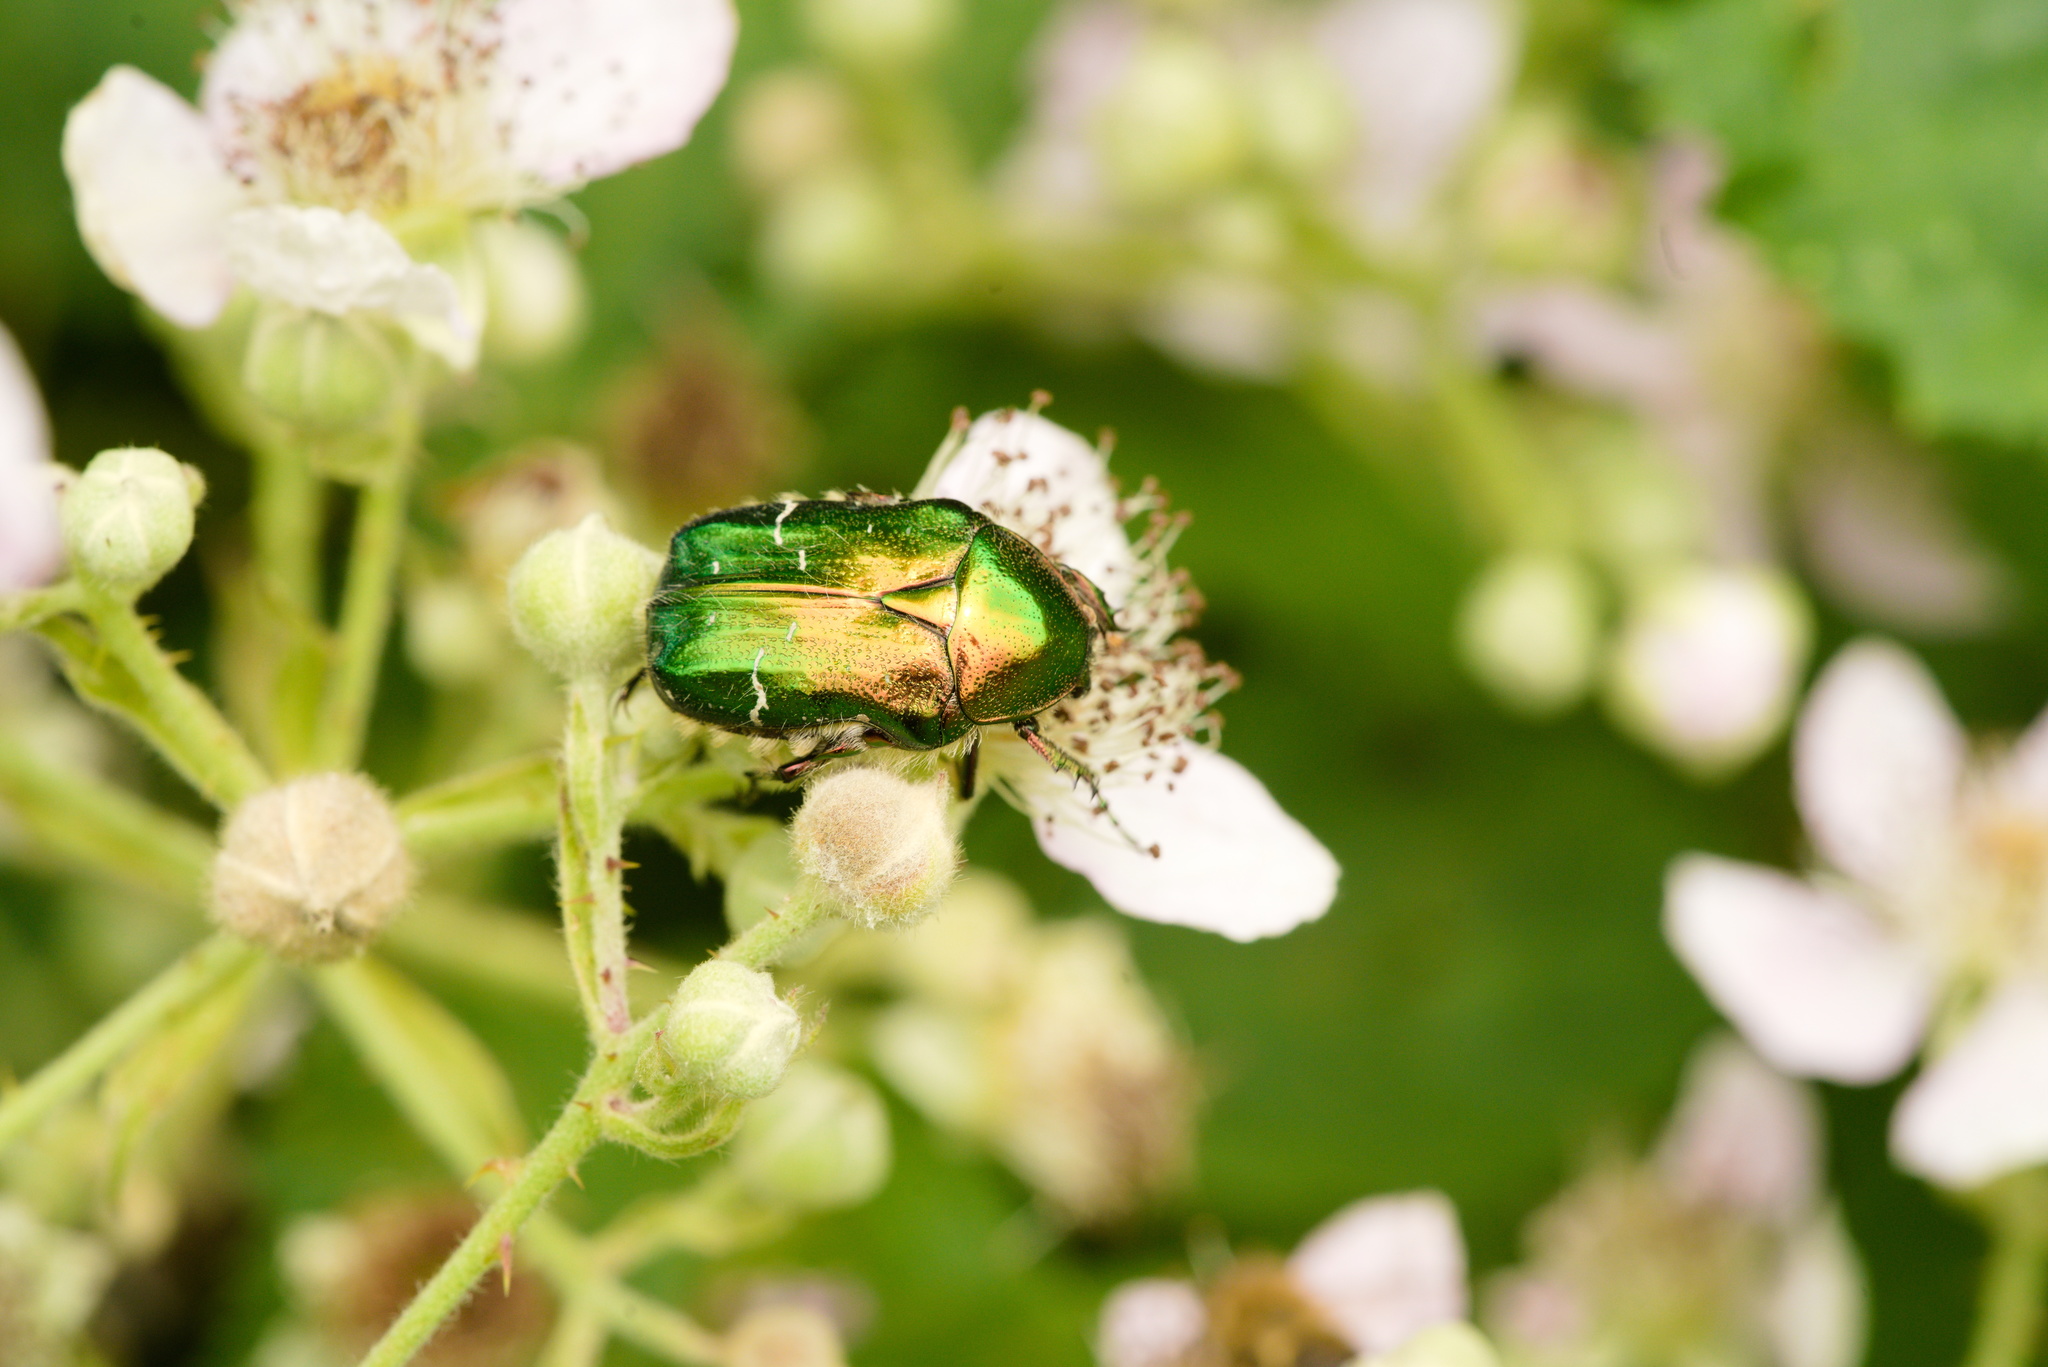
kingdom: Animalia
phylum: Arthropoda
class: Insecta
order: Coleoptera
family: Scarabaeidae
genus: Cetonia
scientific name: Cetonia aurata
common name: Rose chafer
